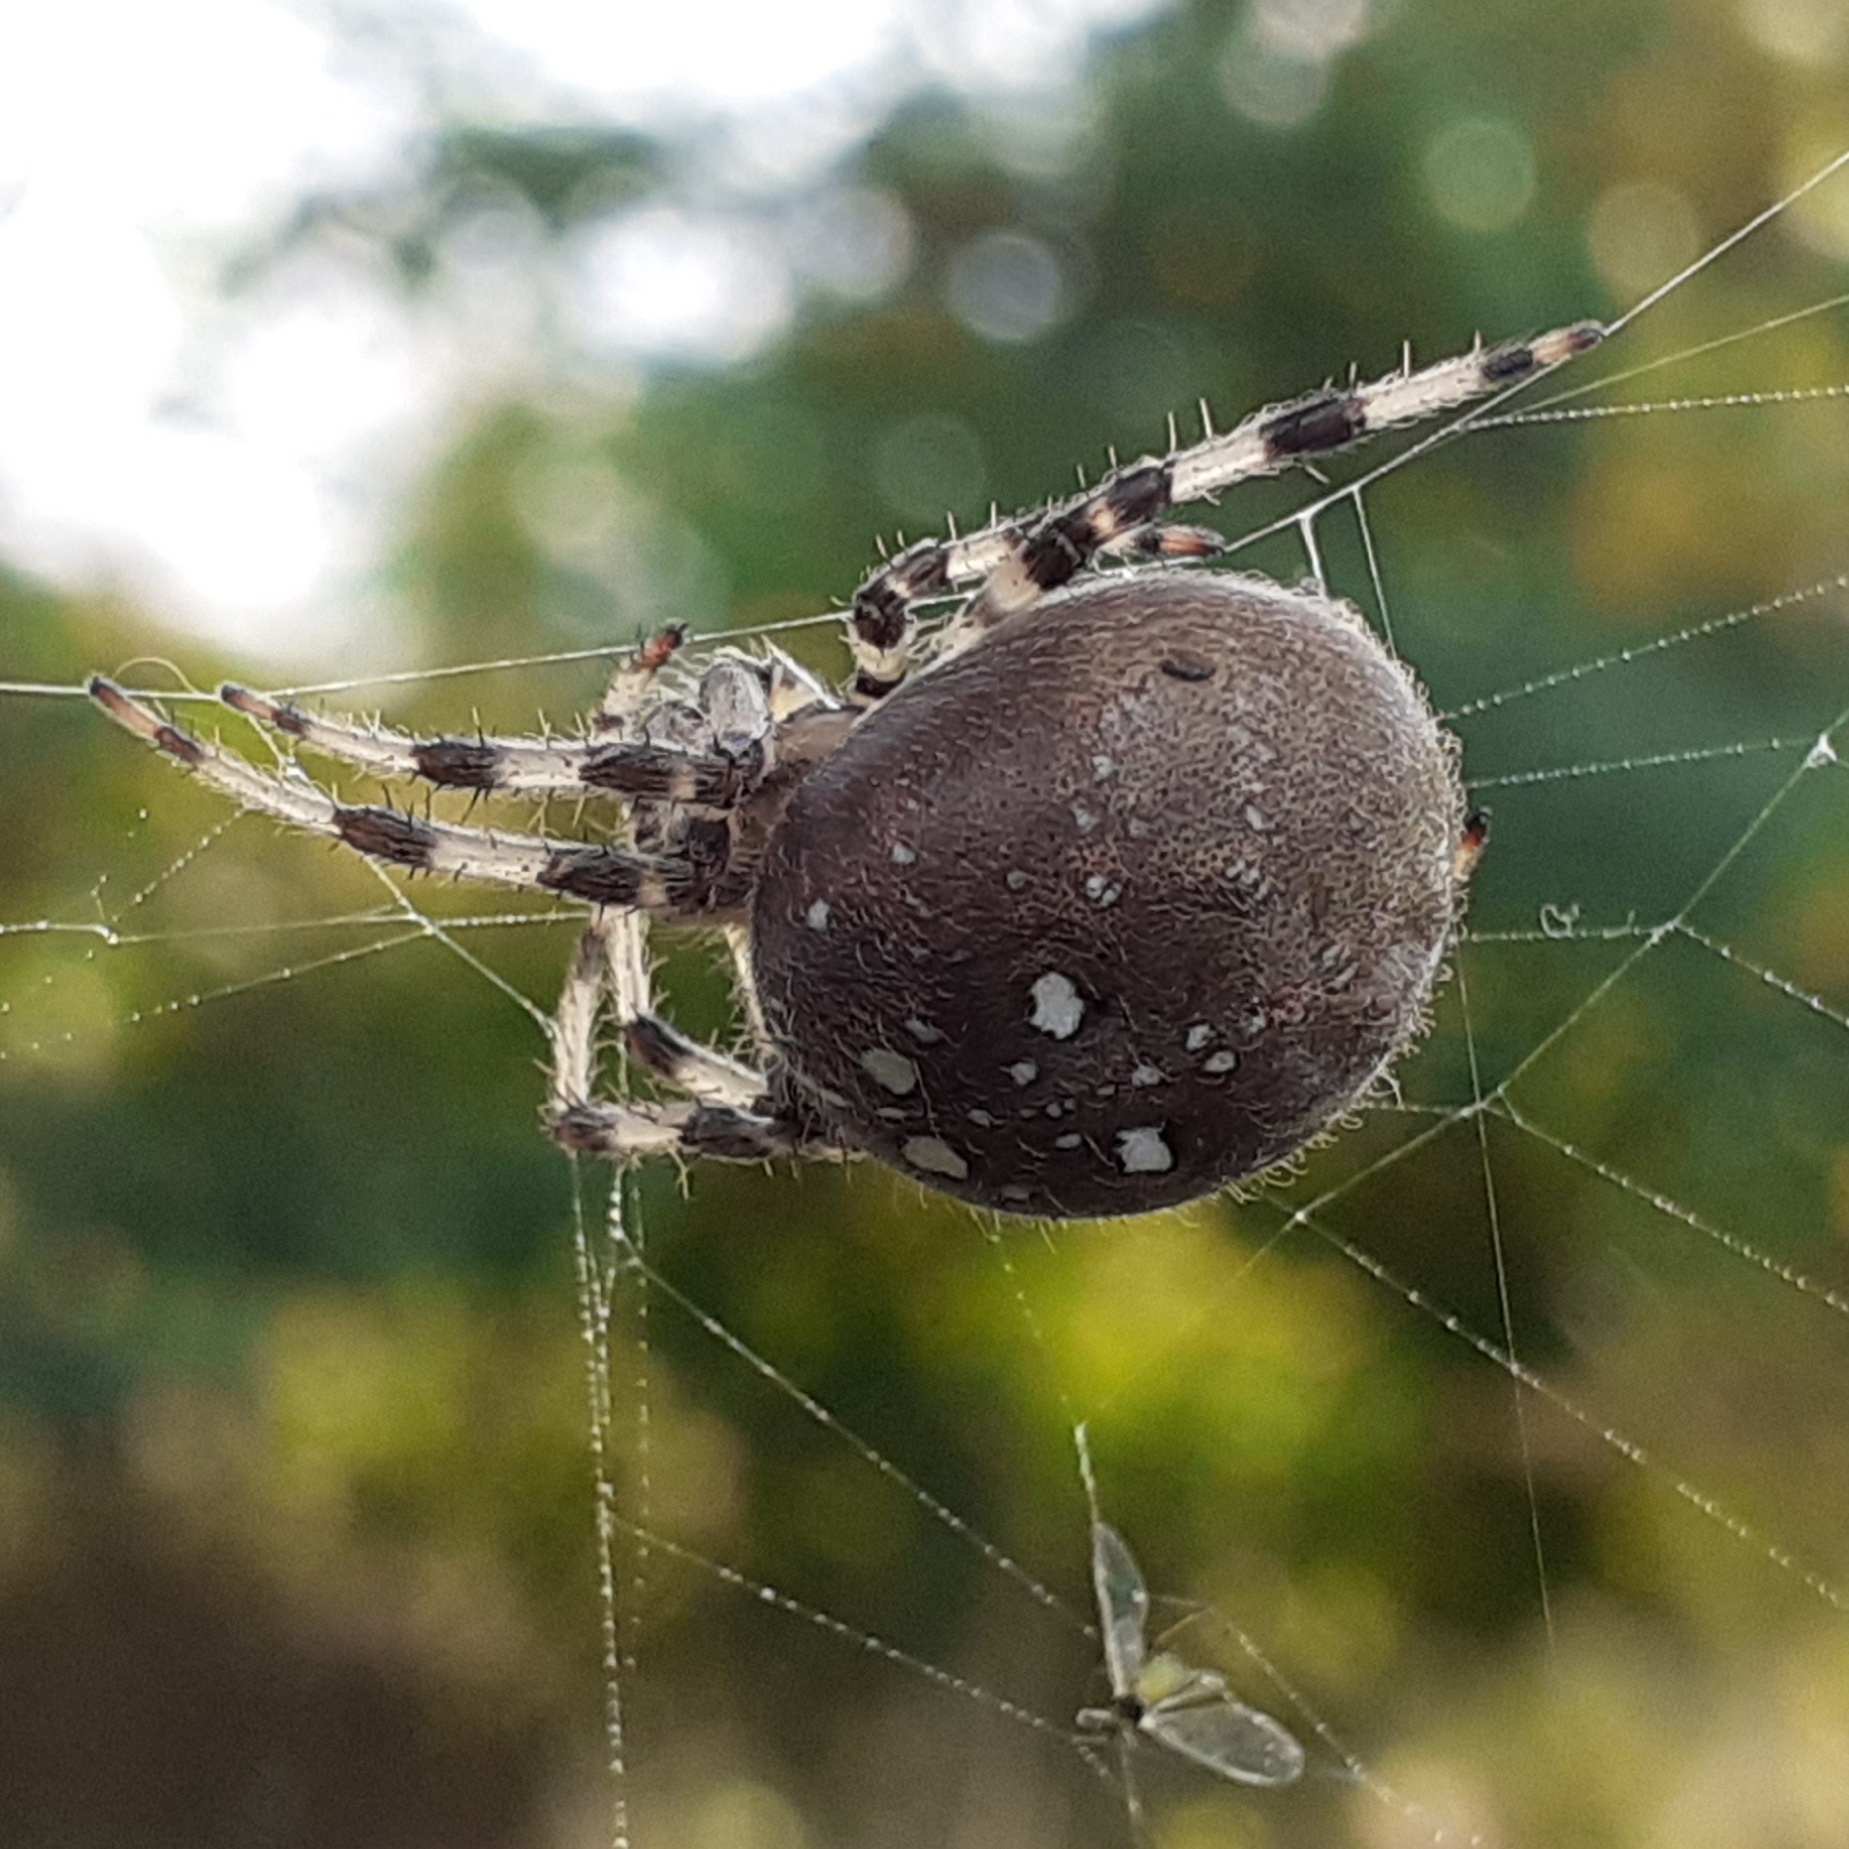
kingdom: Animalia
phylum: Arthropoda
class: Arachnida
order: Araneae
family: Araneidae
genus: Araneus
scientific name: Araneus quadratus
